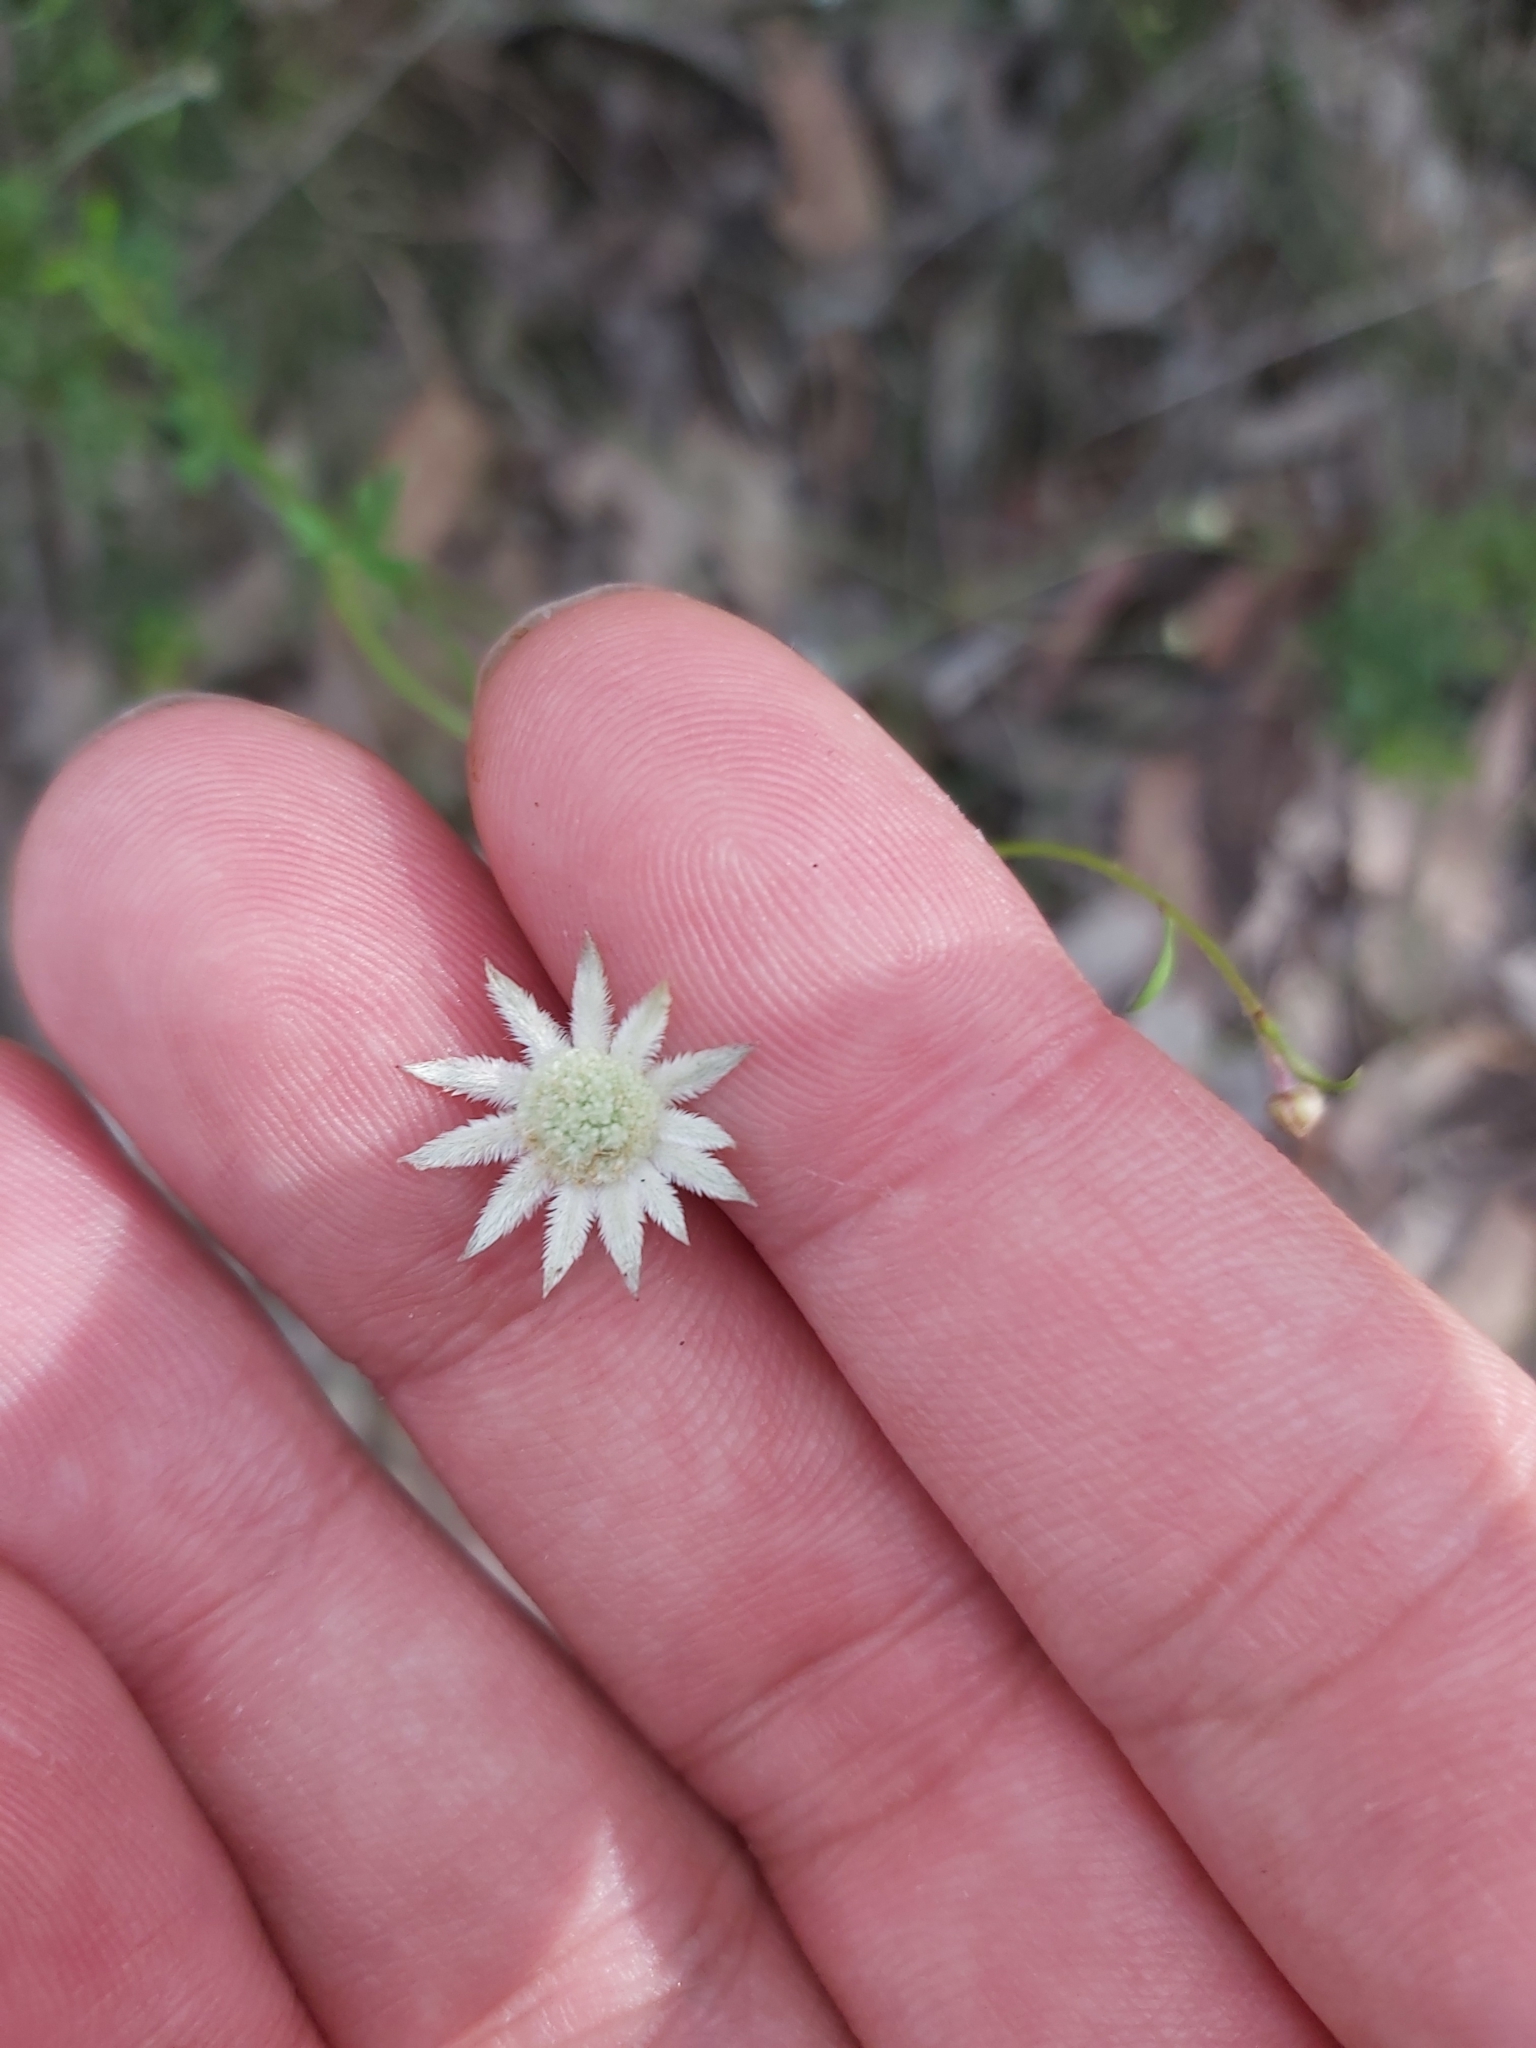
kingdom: Plantae
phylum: Tracheophyta
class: Magnoliopsida
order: Apiales
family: Apiaceae
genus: Actinotus
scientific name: Actinotus minor
